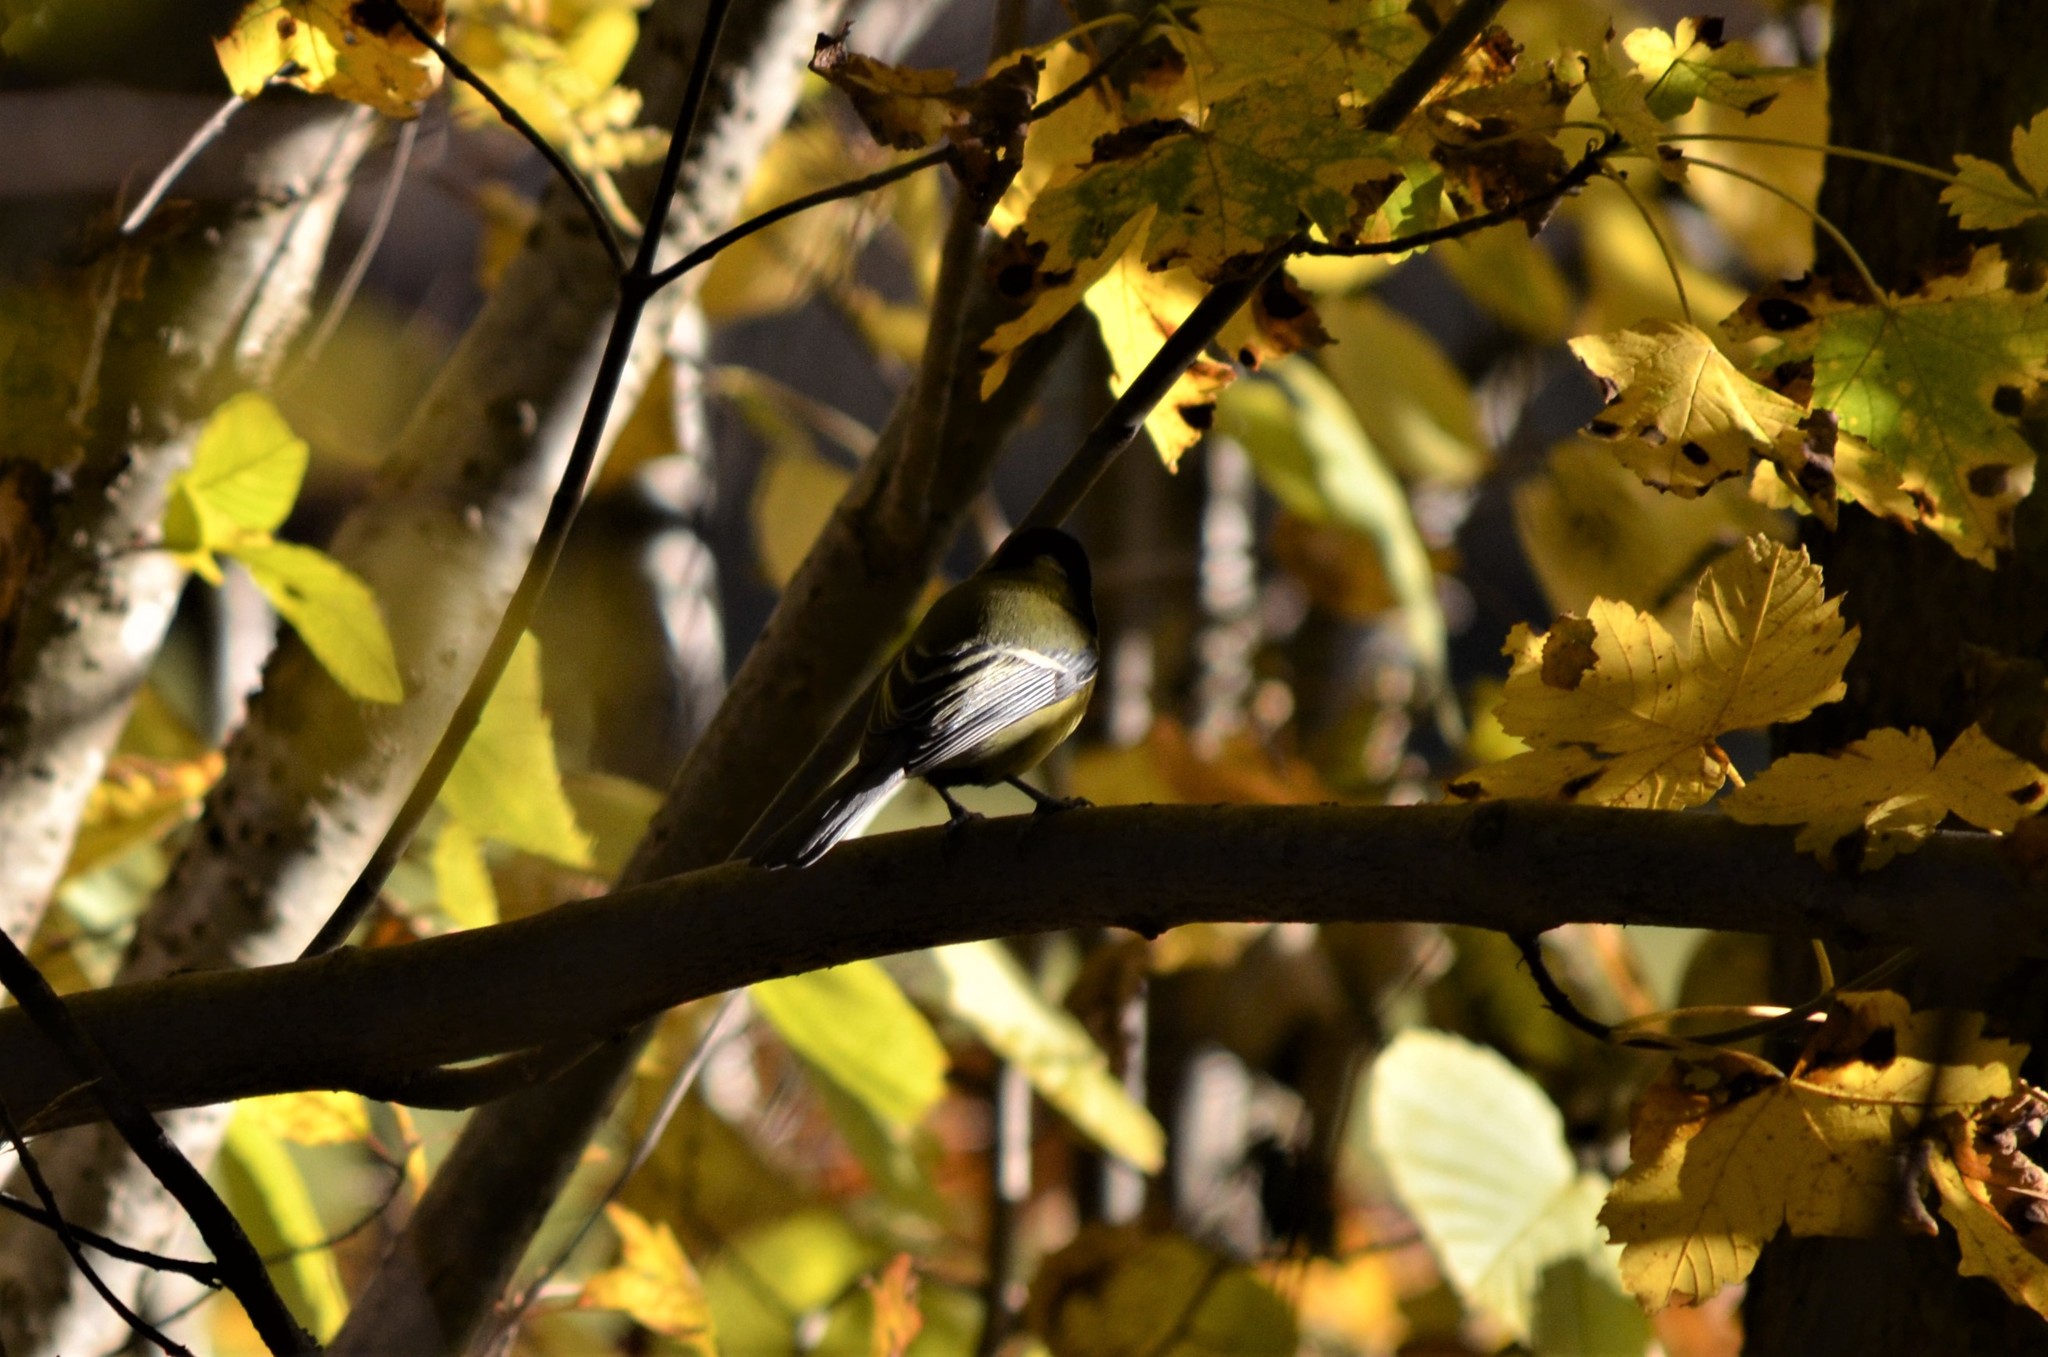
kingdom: Animalia
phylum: Chordata
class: Aves
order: Passeriformes
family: Paridae
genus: Parus
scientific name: Parus major
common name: Great tit
